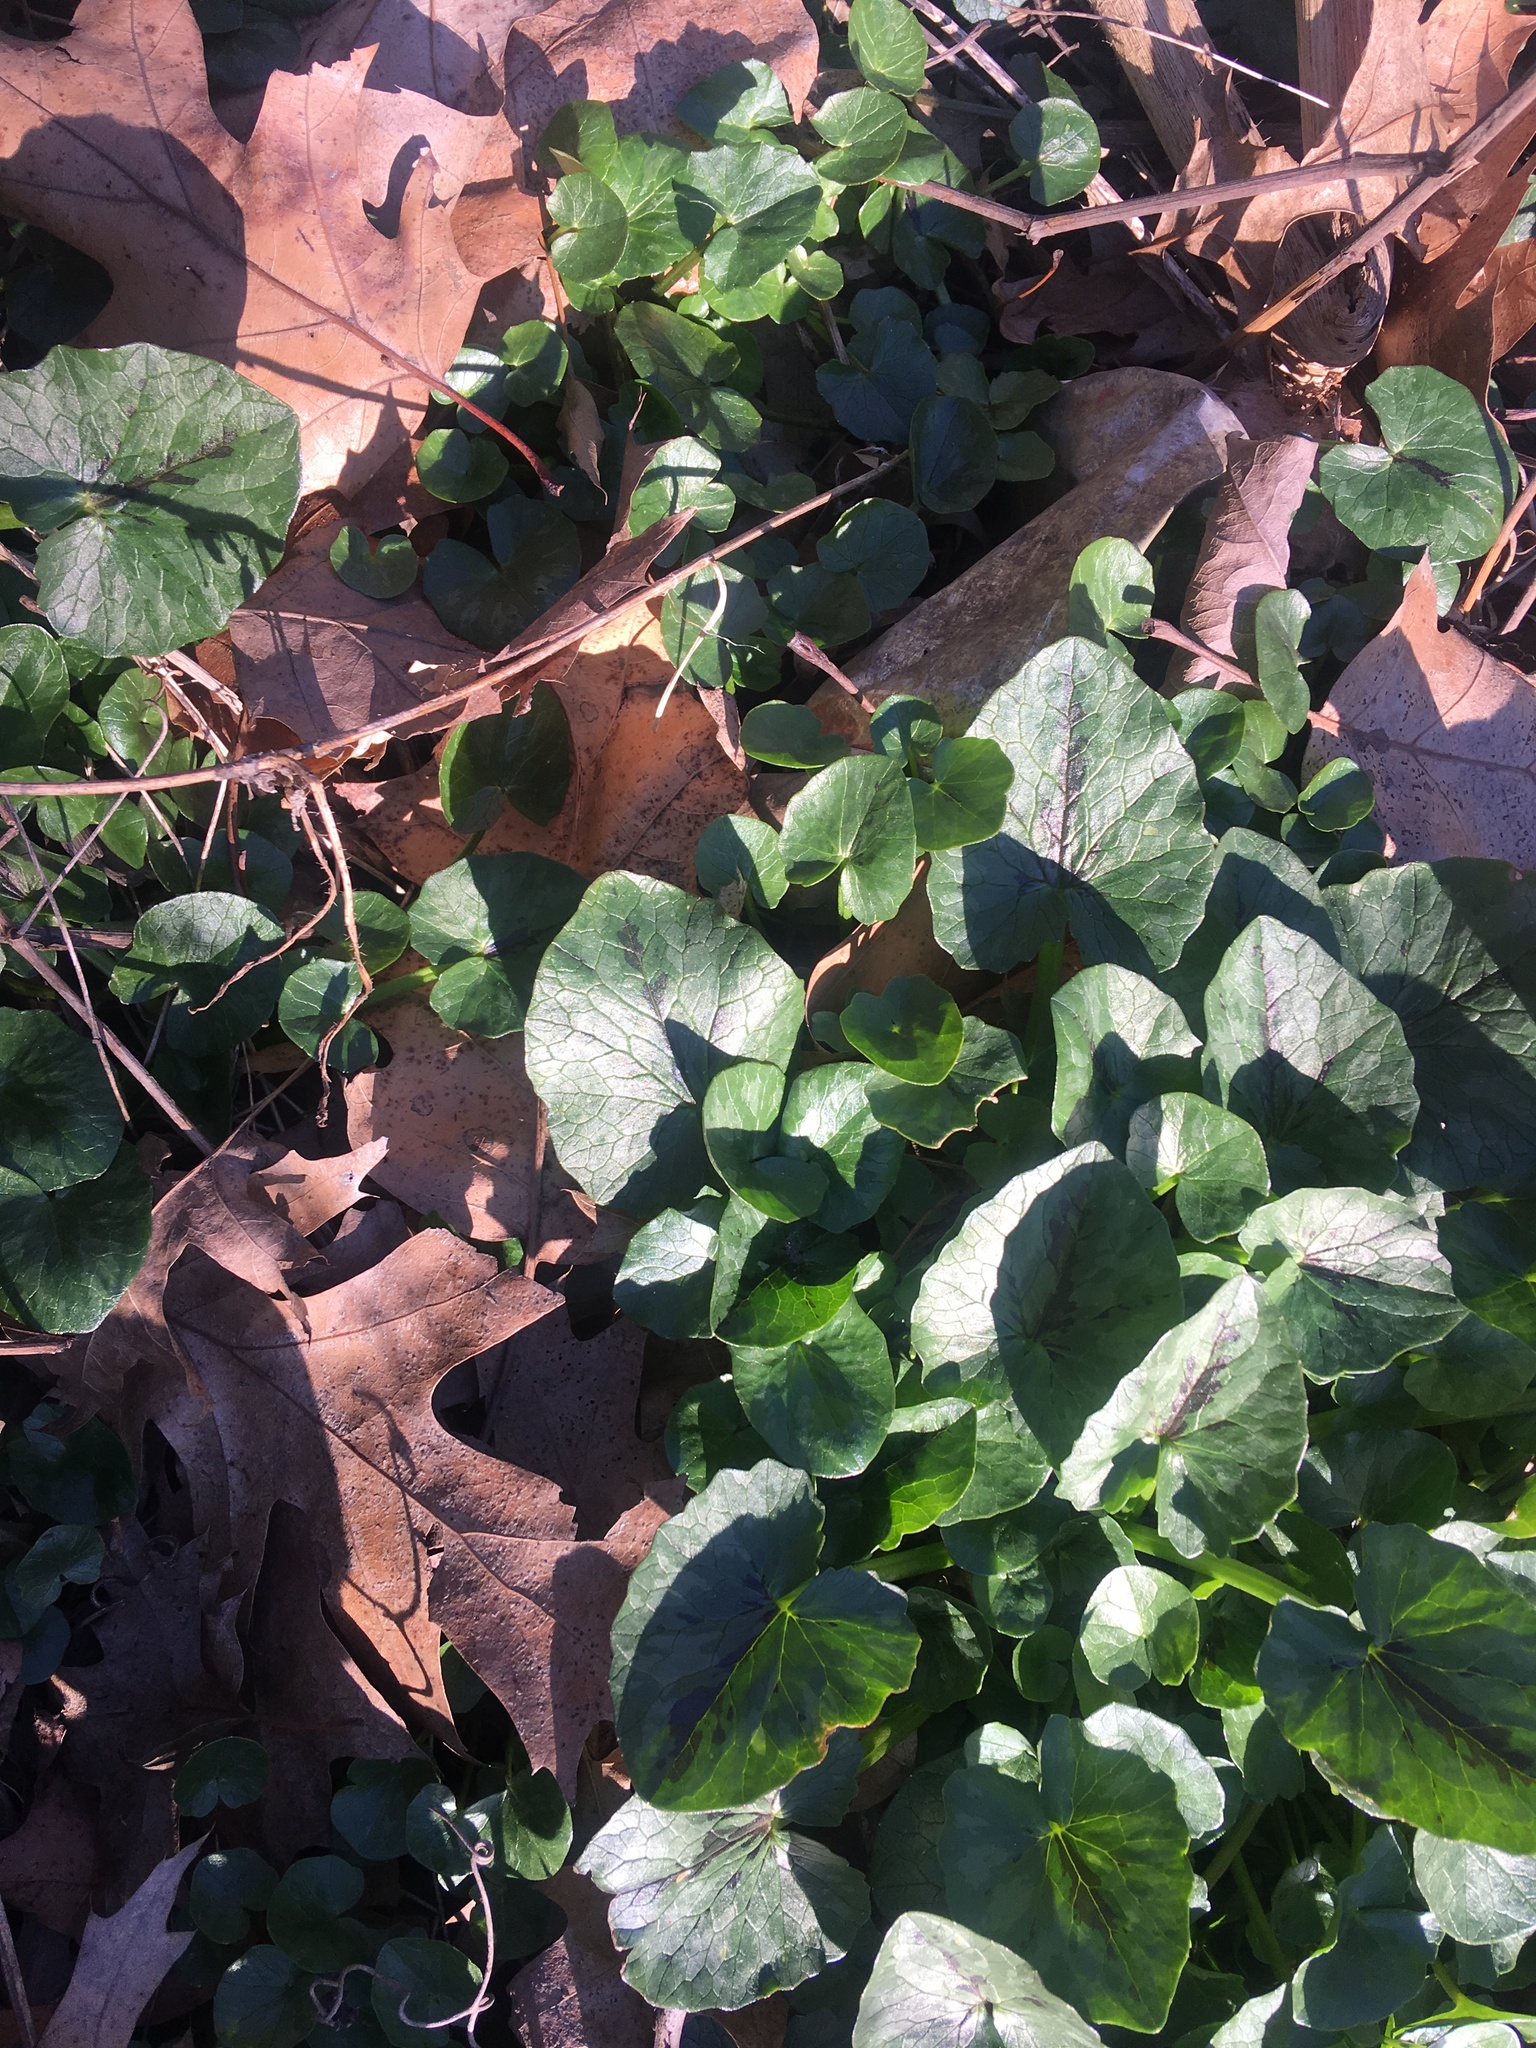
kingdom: Plantae
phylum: Tracheophyta
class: Magnoliopsida
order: Ranunculales
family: Ranunculaceae
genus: Ficaria
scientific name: Ficaria verna
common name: Lesser celandine
